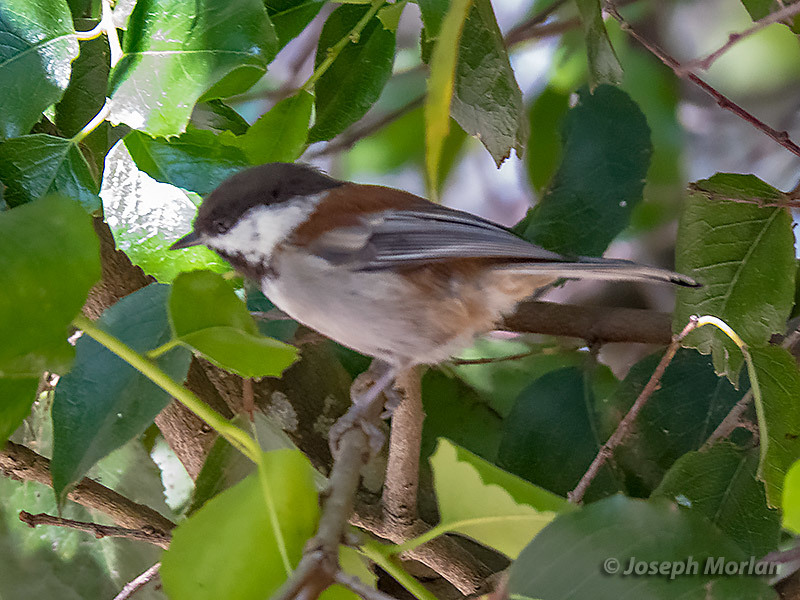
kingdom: Animalia
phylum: Chordata
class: Aves
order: Passeriformes
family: Paridae
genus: Poecile
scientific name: Poecile rufescens
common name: Chestnut-backed chickadee
